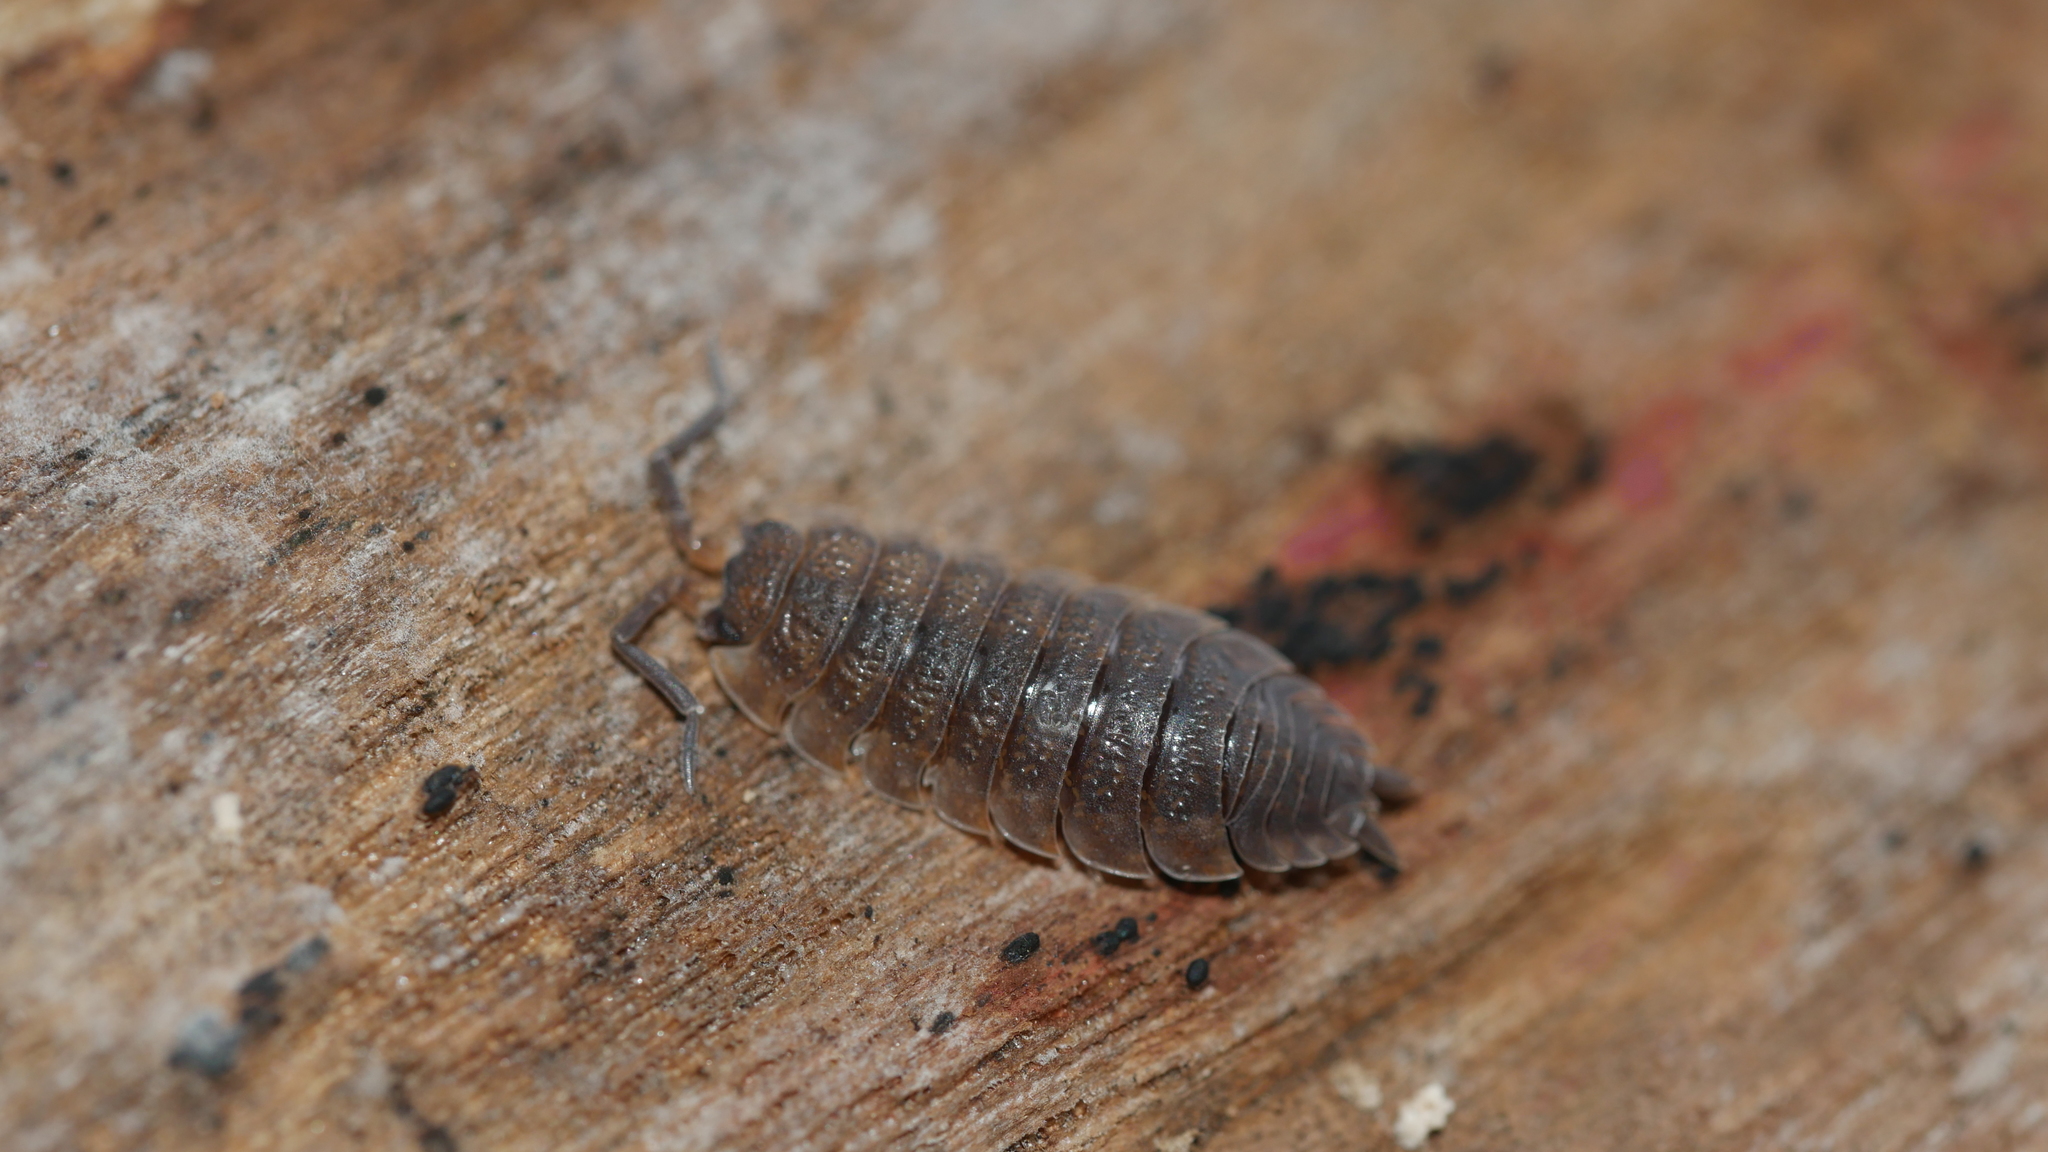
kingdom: Animalia
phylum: Arthropoda
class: Malacostraca
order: Isopoda
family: Porcellionidae
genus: Porcellio
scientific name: Porcellio scaber
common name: Common rough woodlouse
